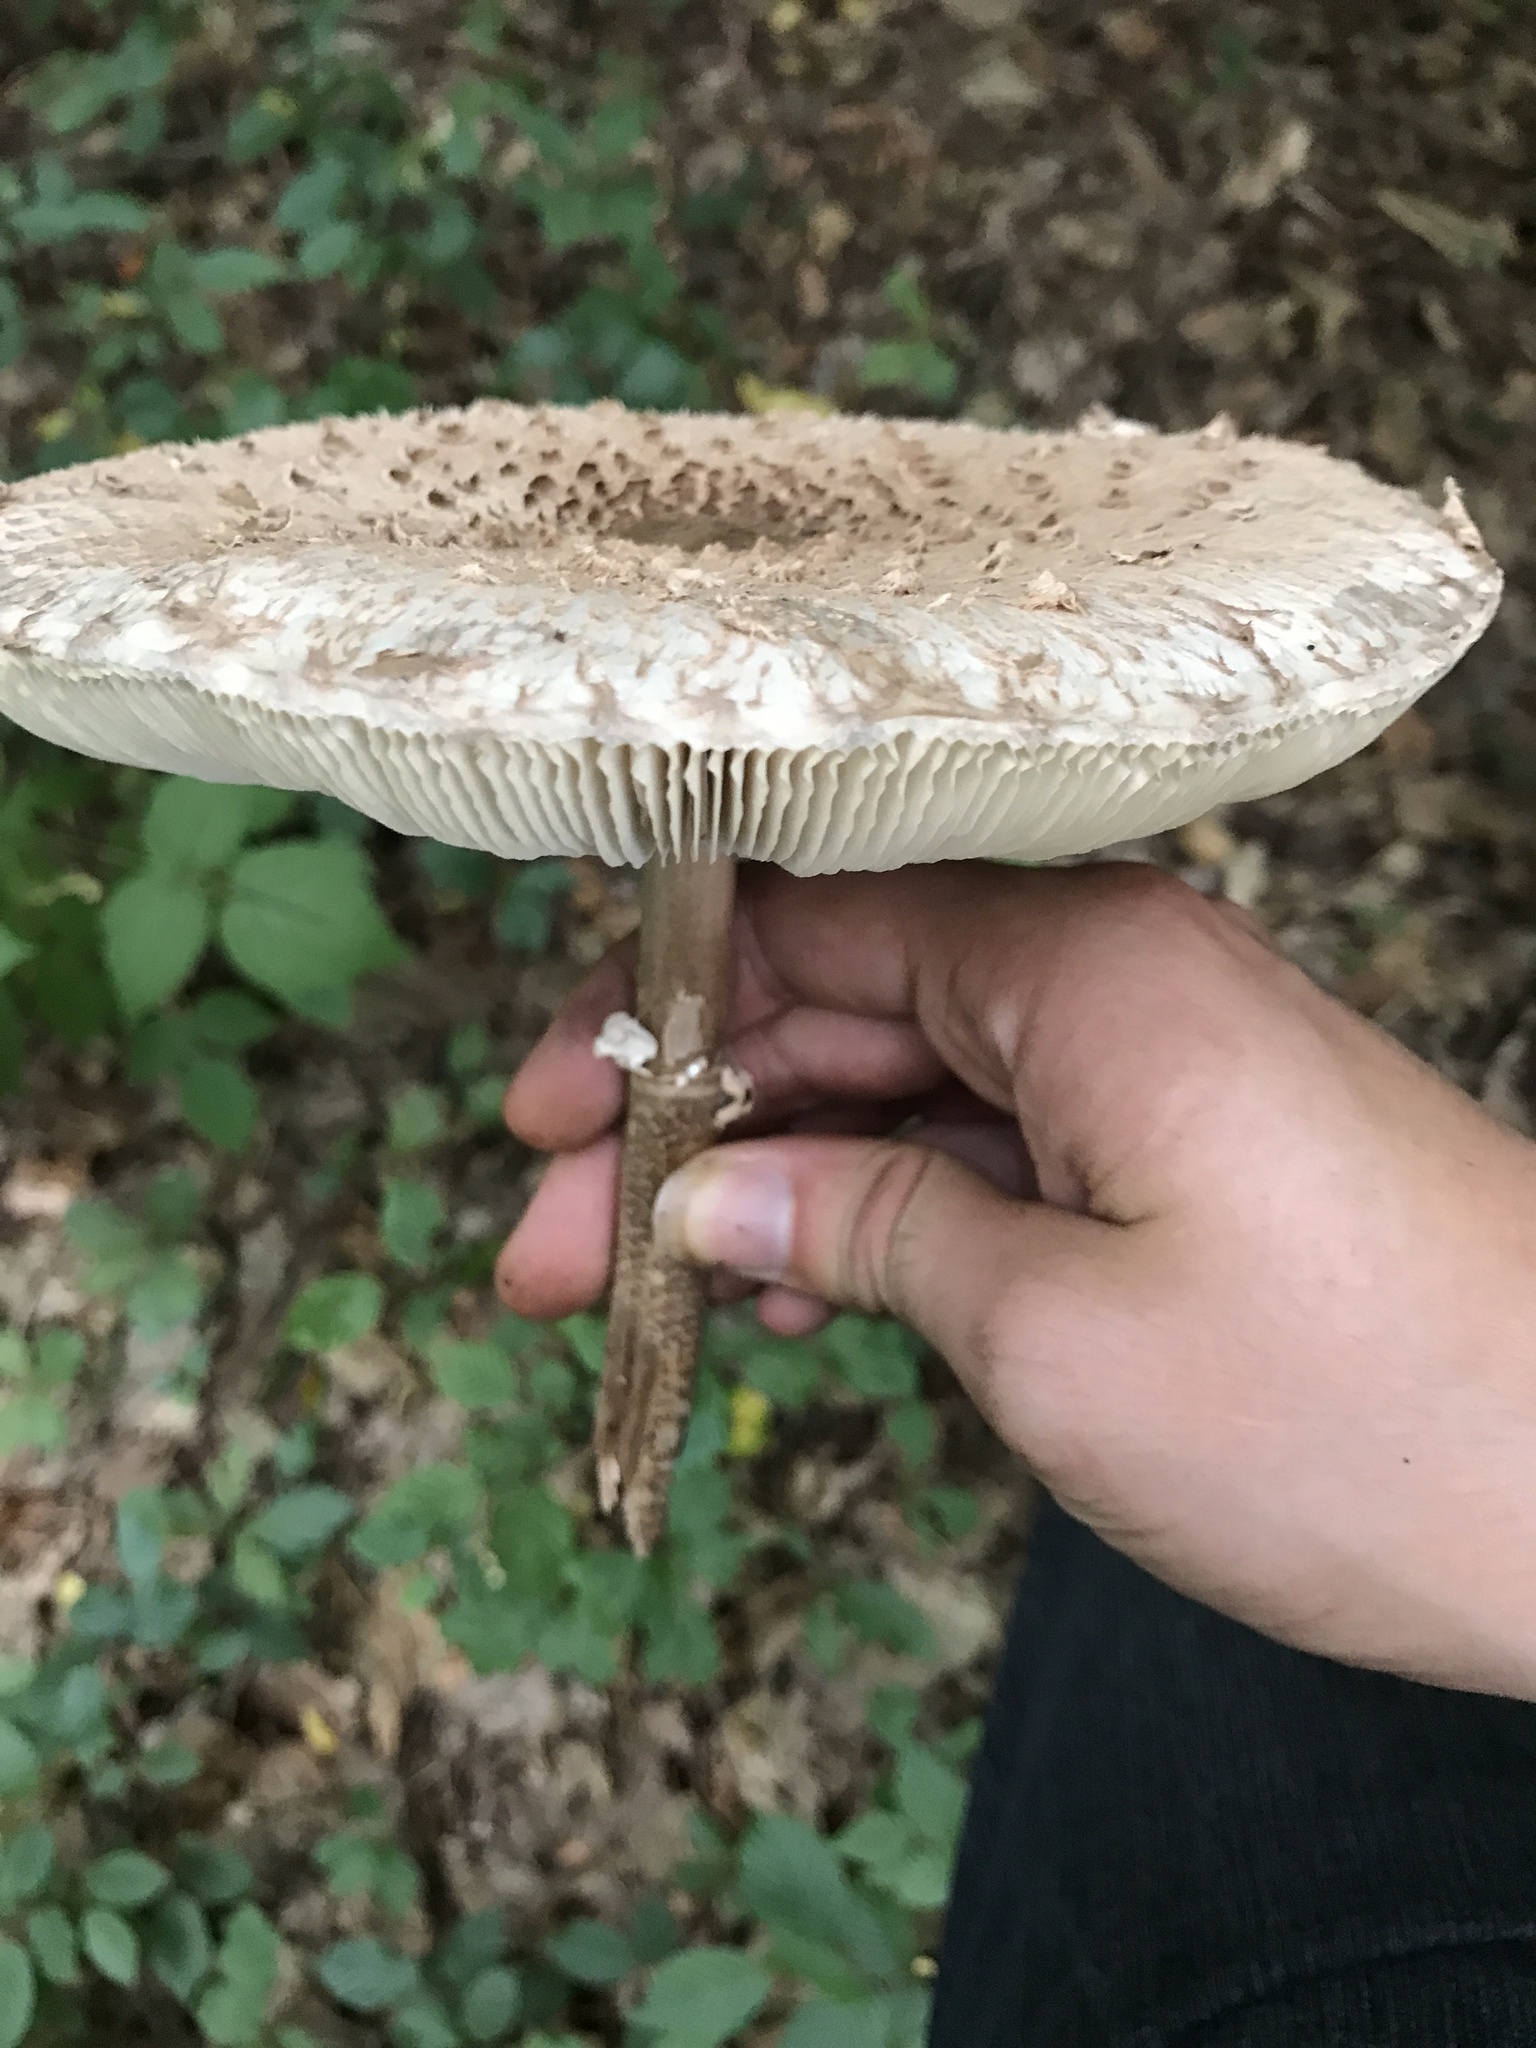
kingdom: Fungi
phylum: Basidiomycota
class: Agaricomycetes
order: Agaricales
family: Agaricaceae
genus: Macrolepiota
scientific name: Macrolepiota procera
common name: Parasol
